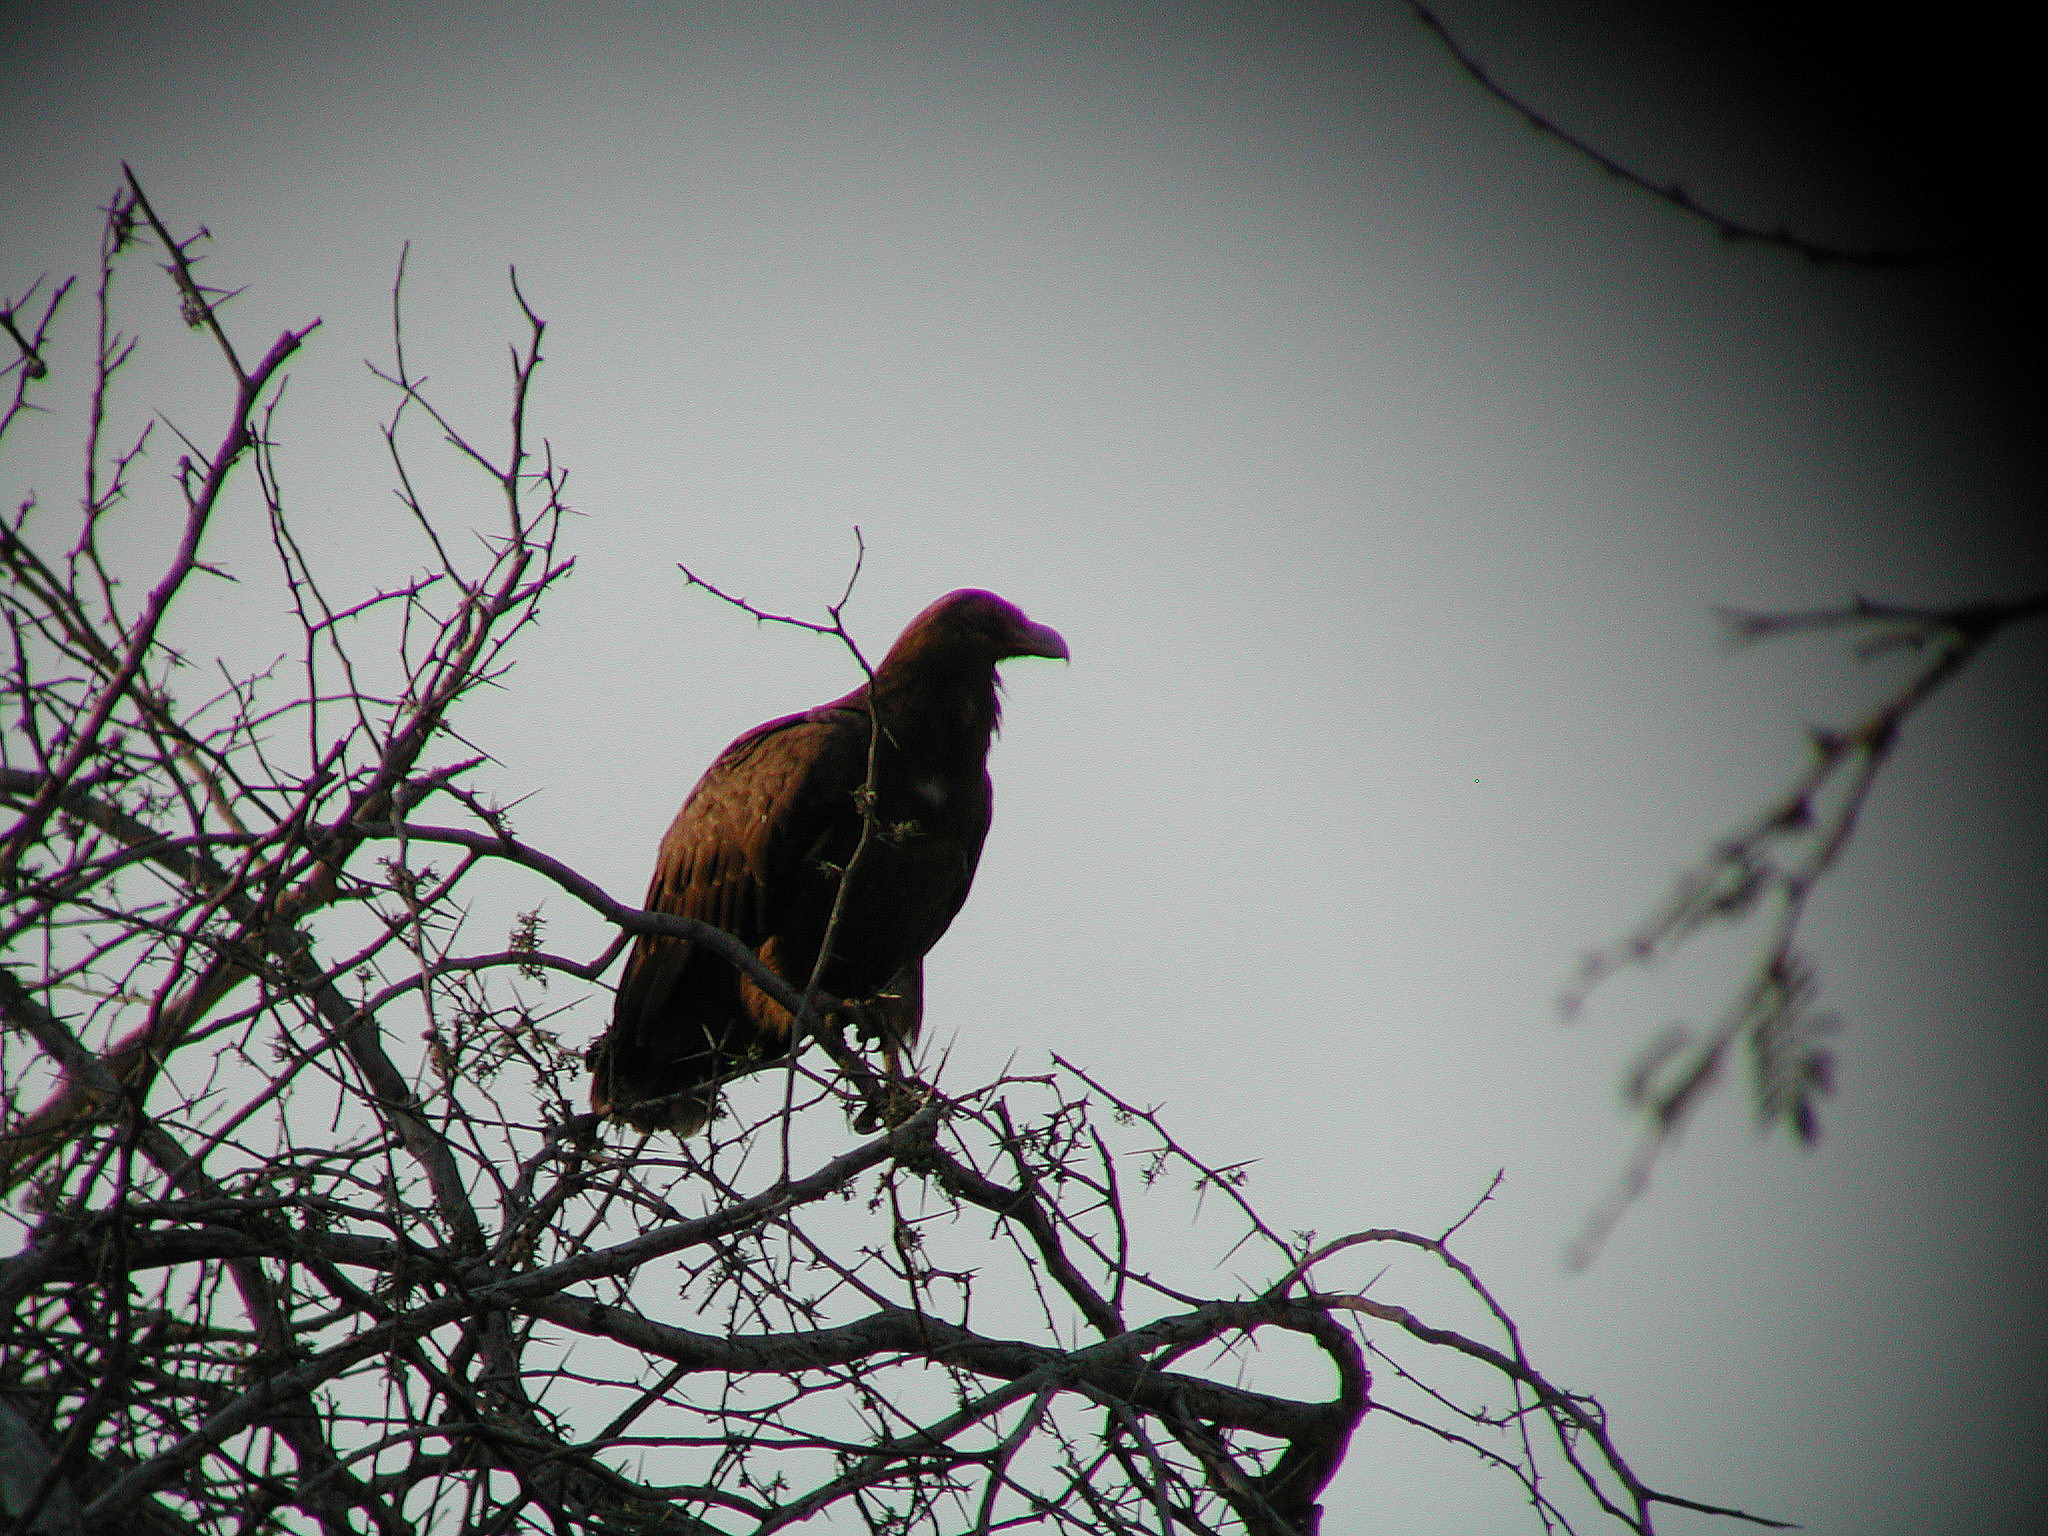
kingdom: Animalia
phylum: Chordata
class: Aves
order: Accipitriformes
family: Accipitridae
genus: Gypohierax
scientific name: Gypohierax angolensis
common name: Palm-nut vulture
